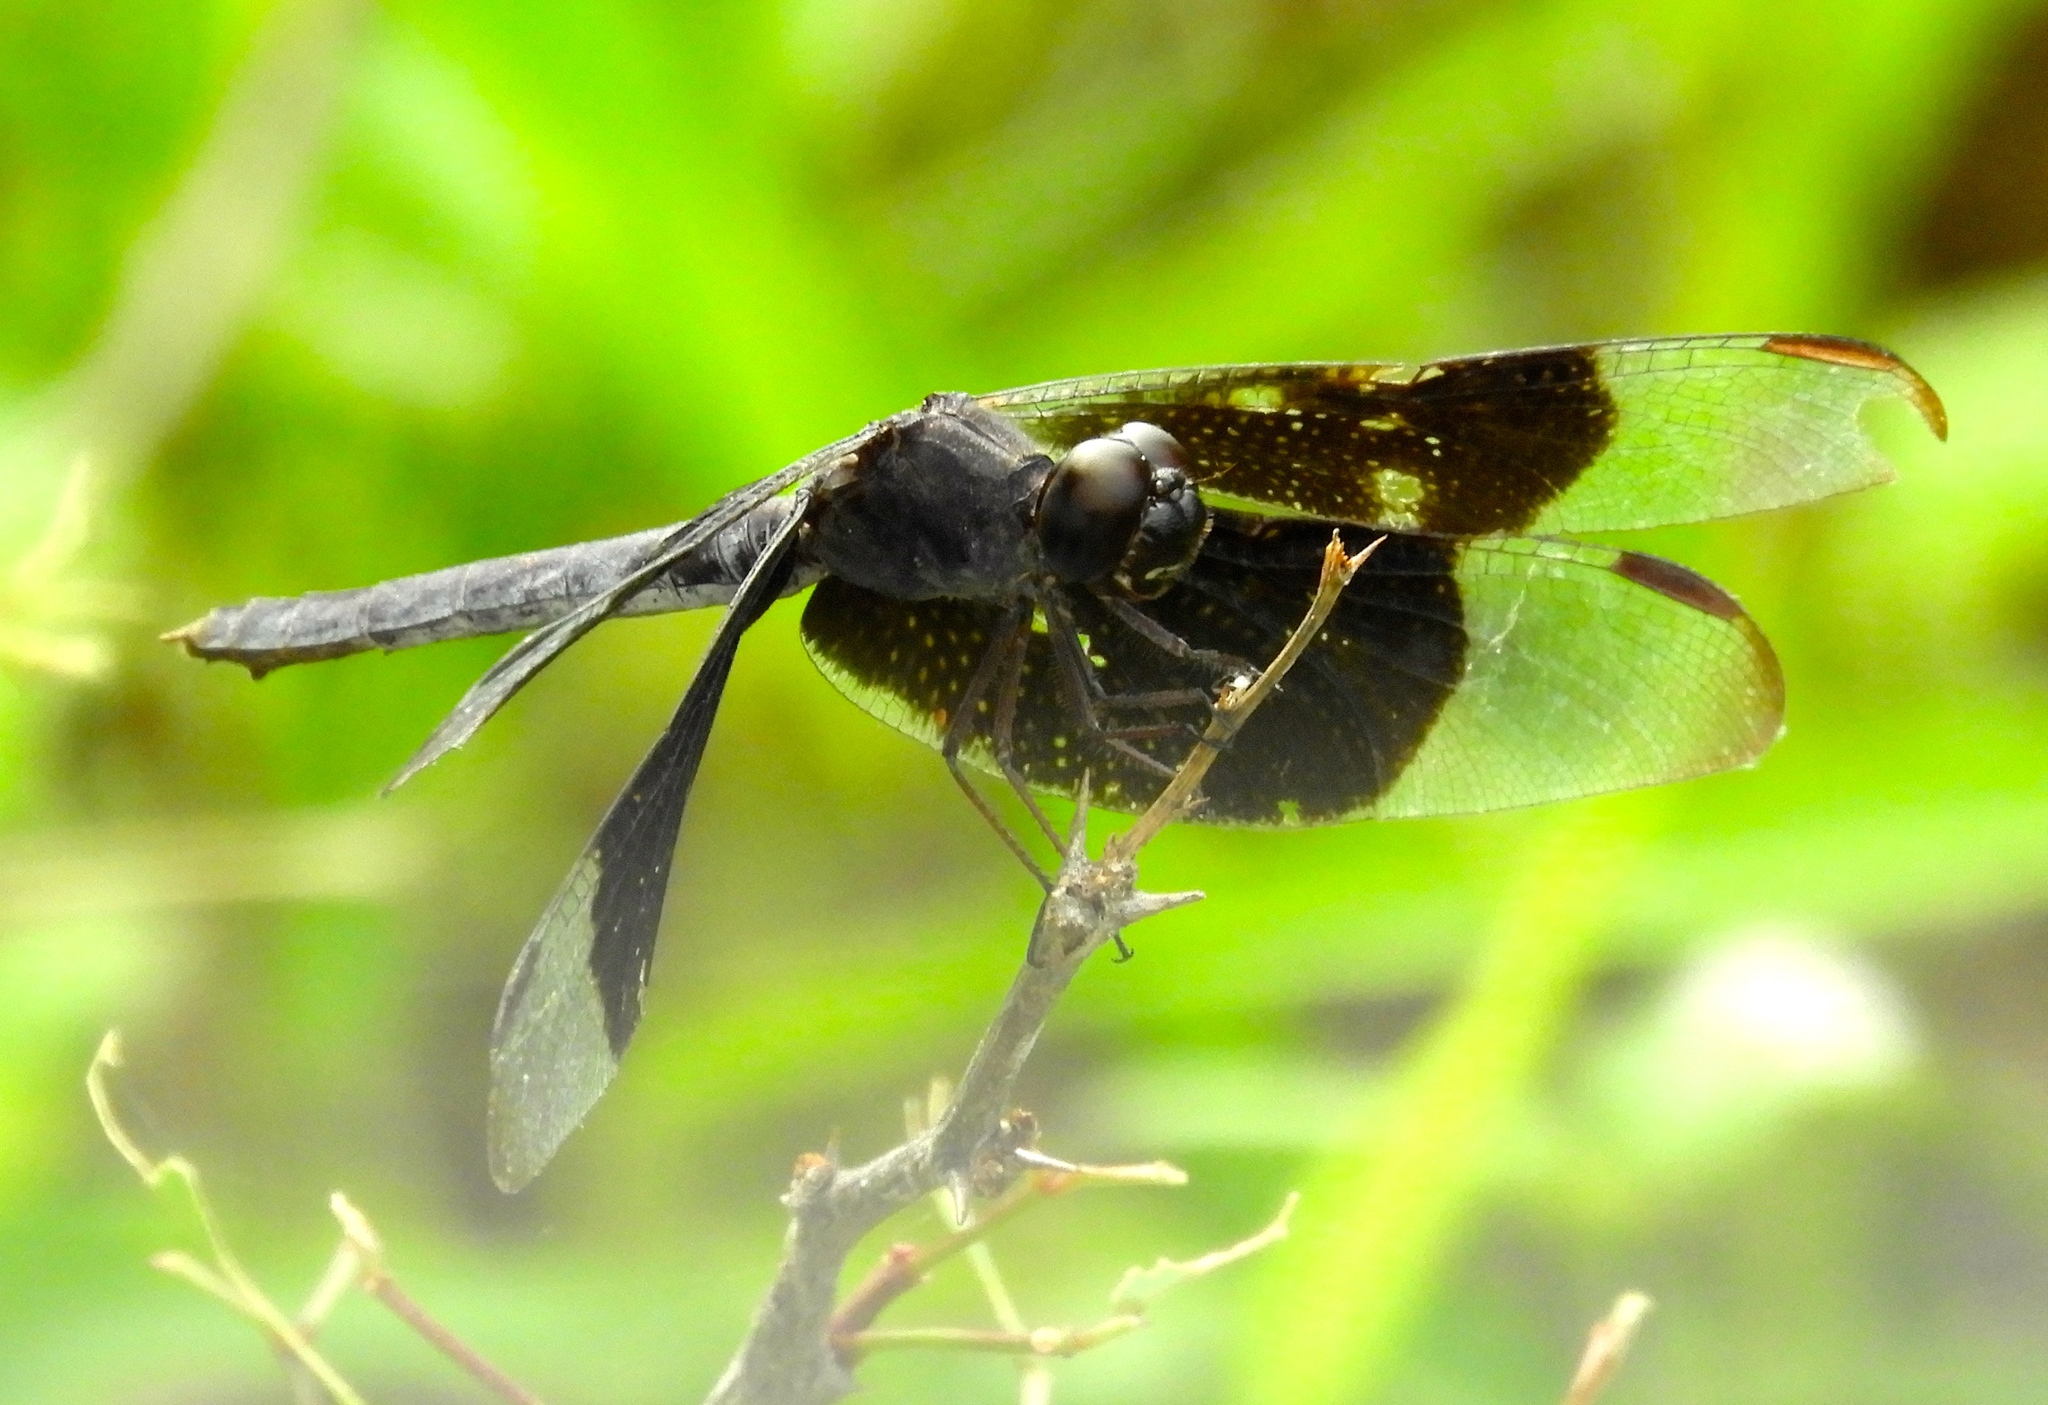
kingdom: Animalia
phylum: Arthropoda
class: Insecta
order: Odonata
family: Libellulidae
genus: Erythrodiplax
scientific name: Erythrodiplax funerea
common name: Black-winged dragonlet
